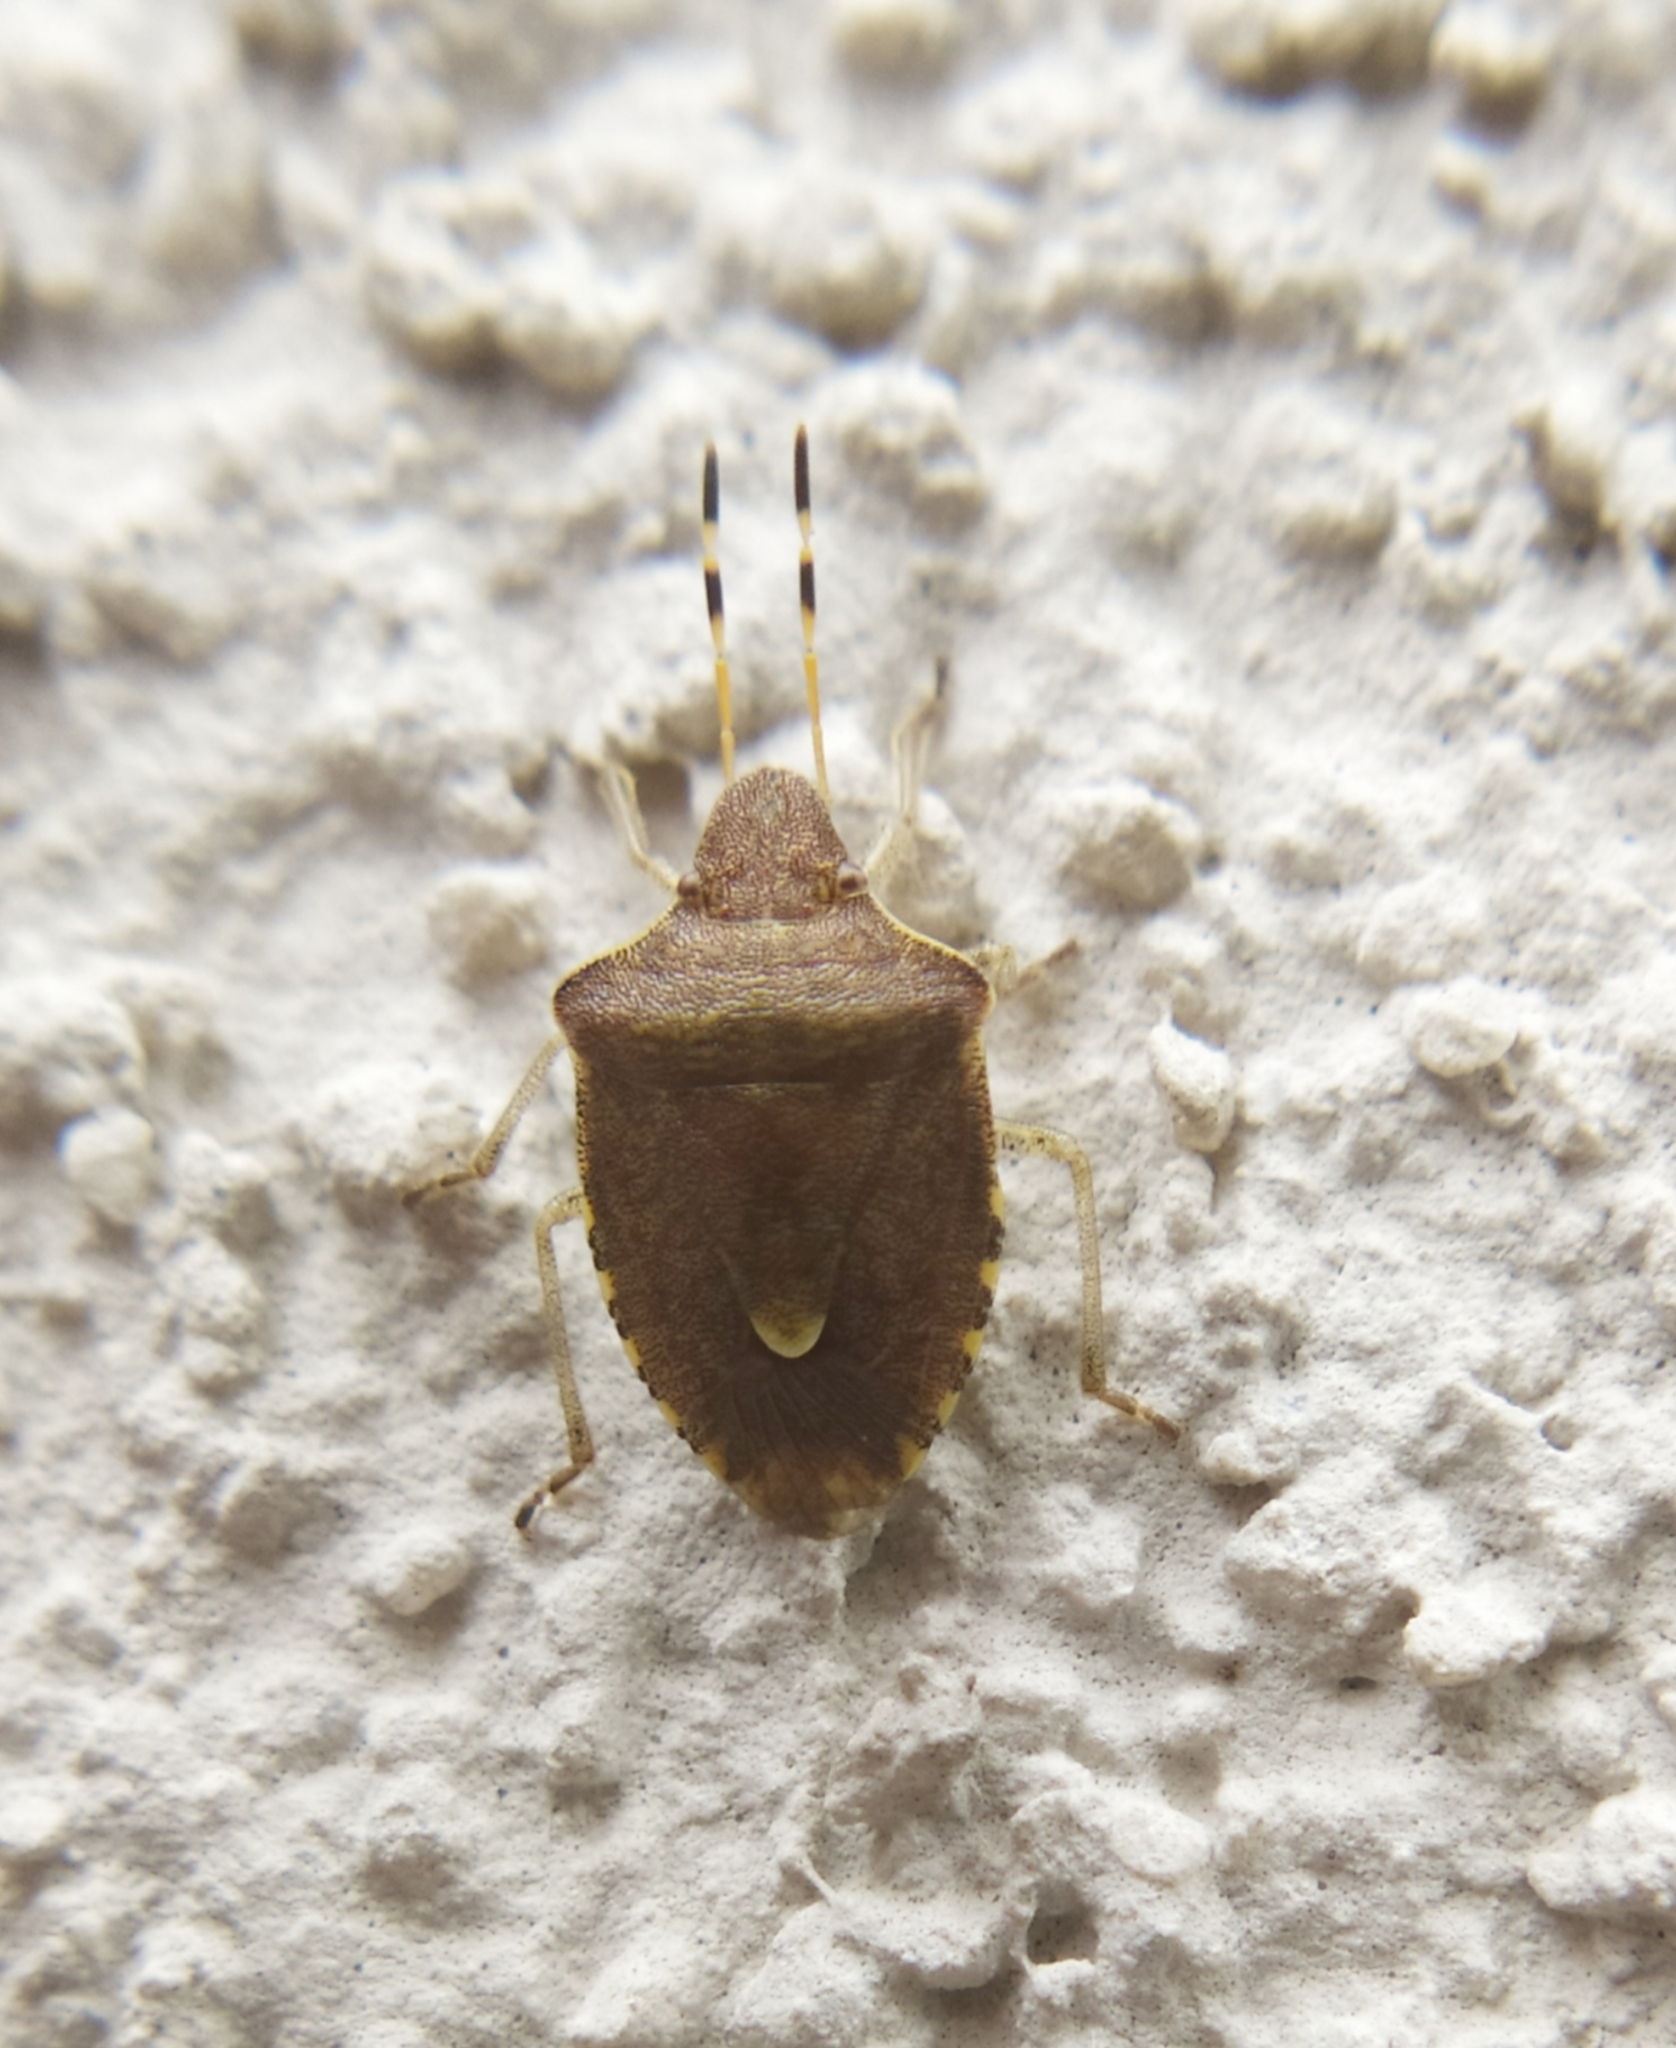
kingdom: Animalia
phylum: Arthropoda
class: Insecta
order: Hemiptera
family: Pentatomidae
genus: Holcostethus
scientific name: Holcostethus strictus
